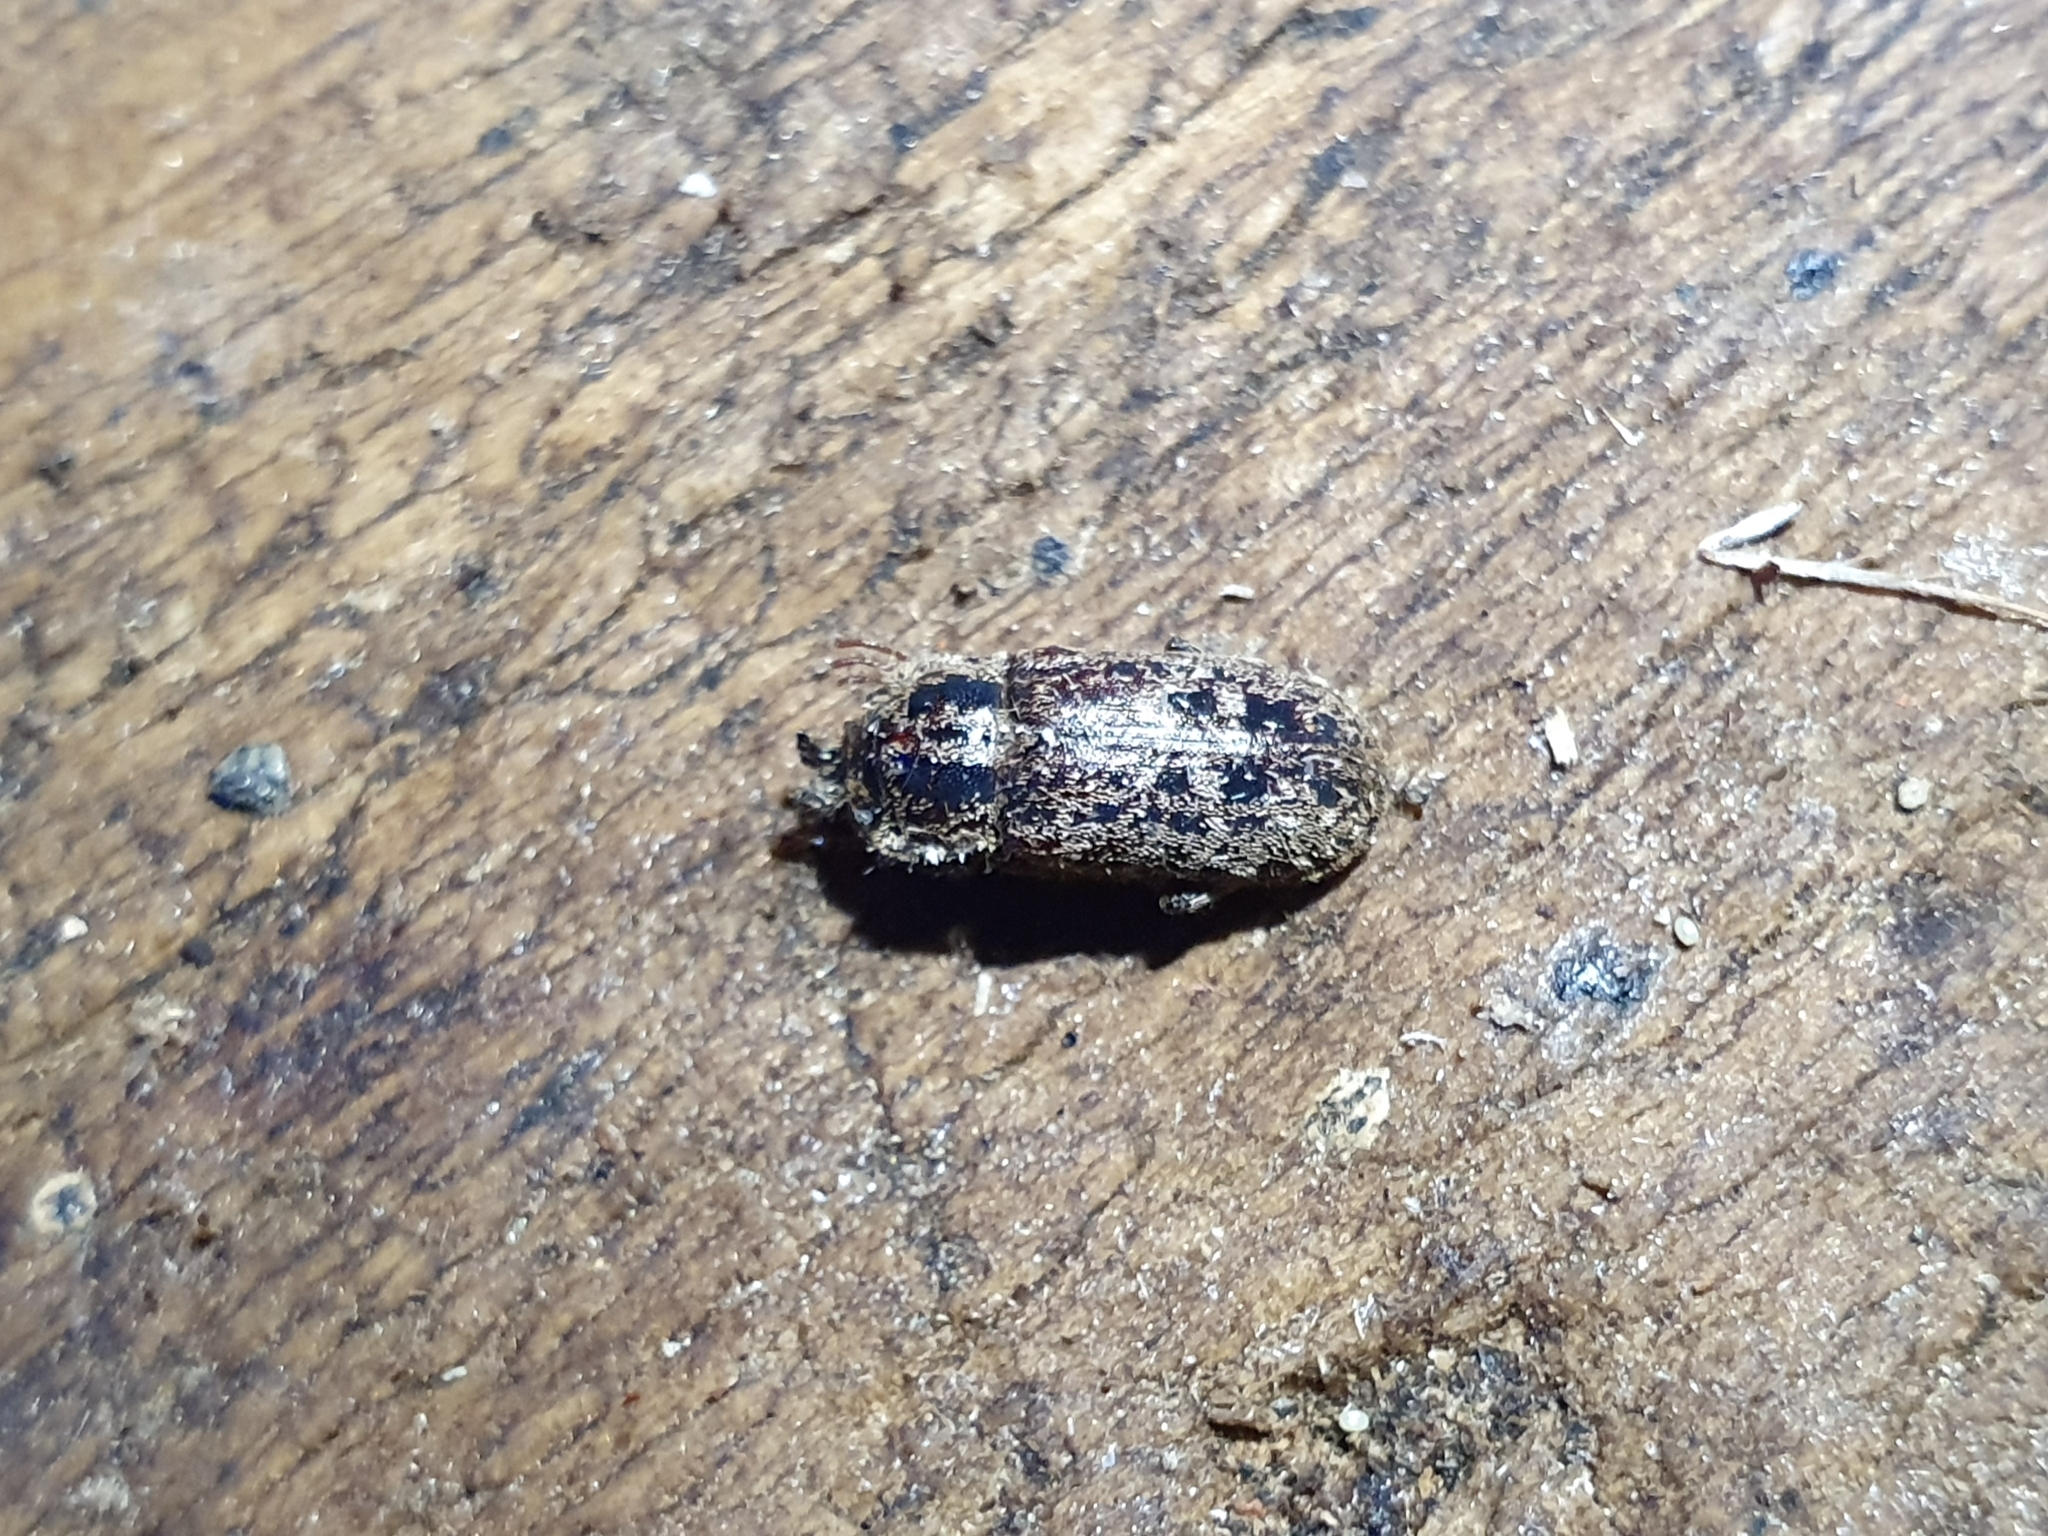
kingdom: Animalia
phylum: Arthropoda
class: Insecta
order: Coleoptera
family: Lucanidae
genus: Mitophyllus
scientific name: Mitophyllus irroratus
